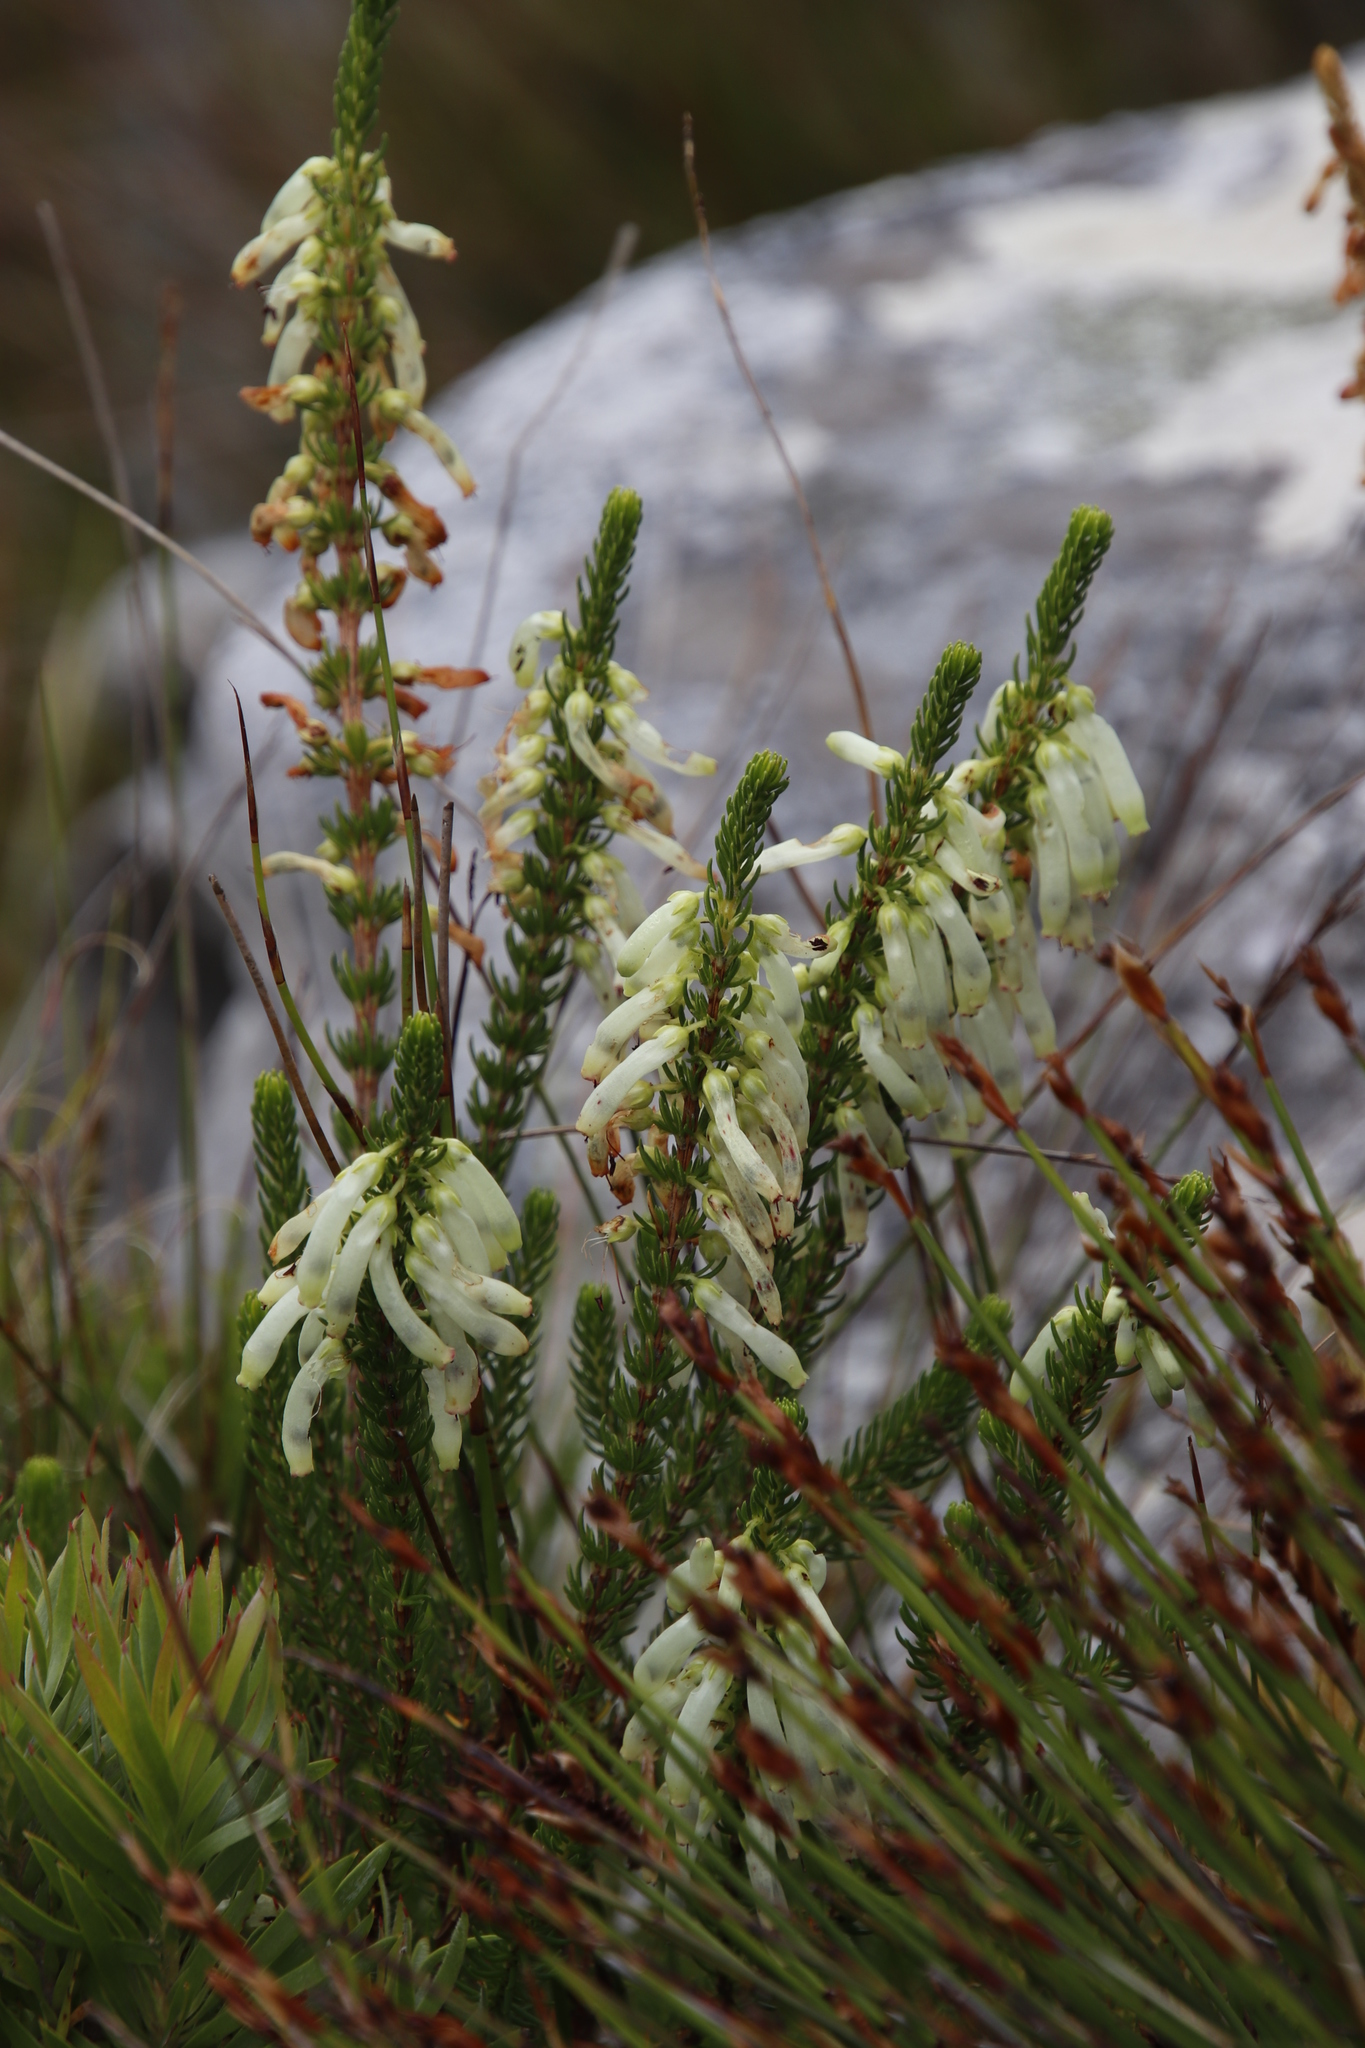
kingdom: Plantae
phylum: Tracheophyta
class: Magnoliopsida
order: Ericales
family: Ericaceae
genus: Erica
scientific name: Erica mammosa
